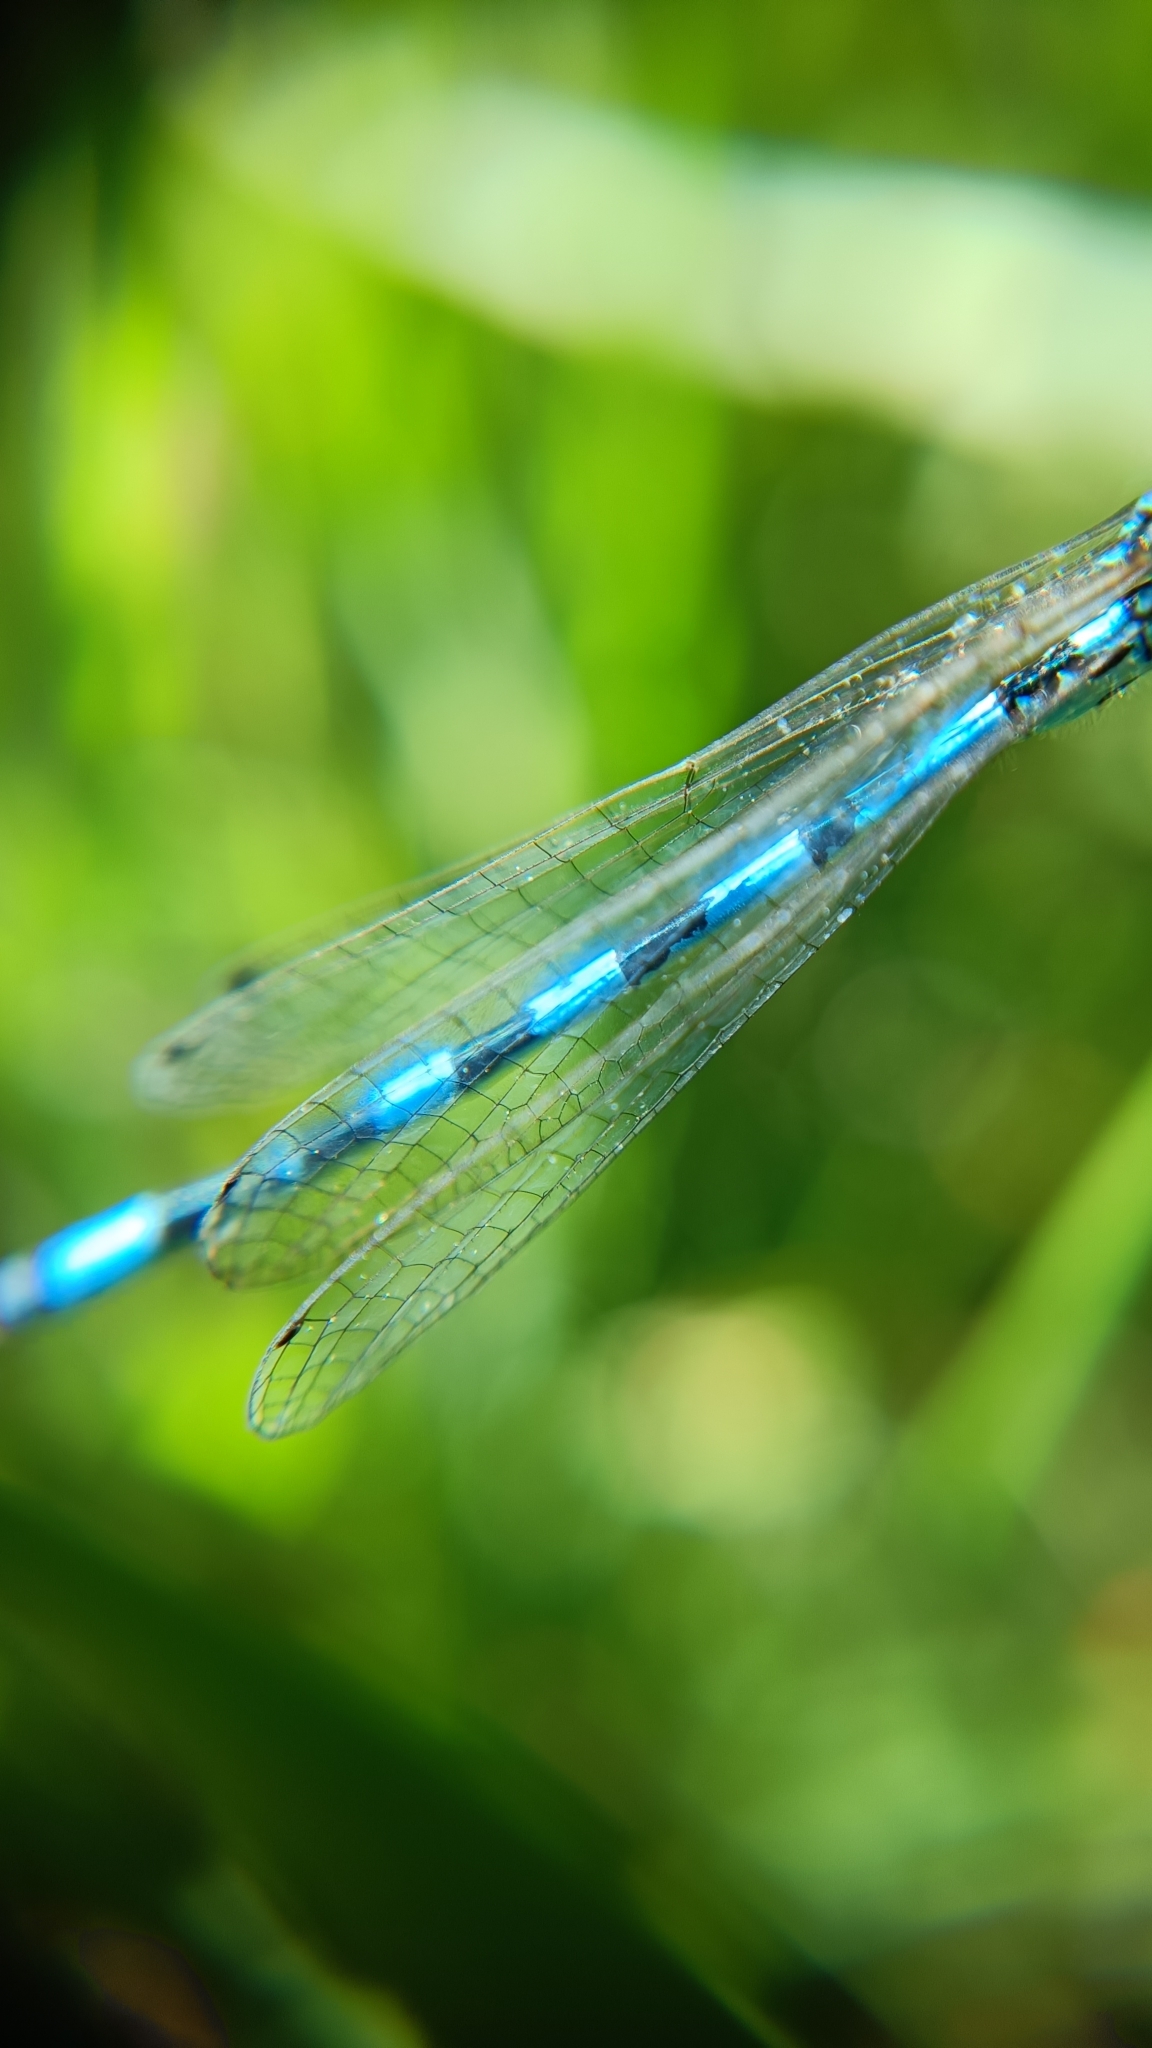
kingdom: Animalia
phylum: Arthropoda
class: Insecta
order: Odonata
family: Coenagrionidae
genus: Coenagrion
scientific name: Coenagrion mercuriale
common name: Southern damselfly
